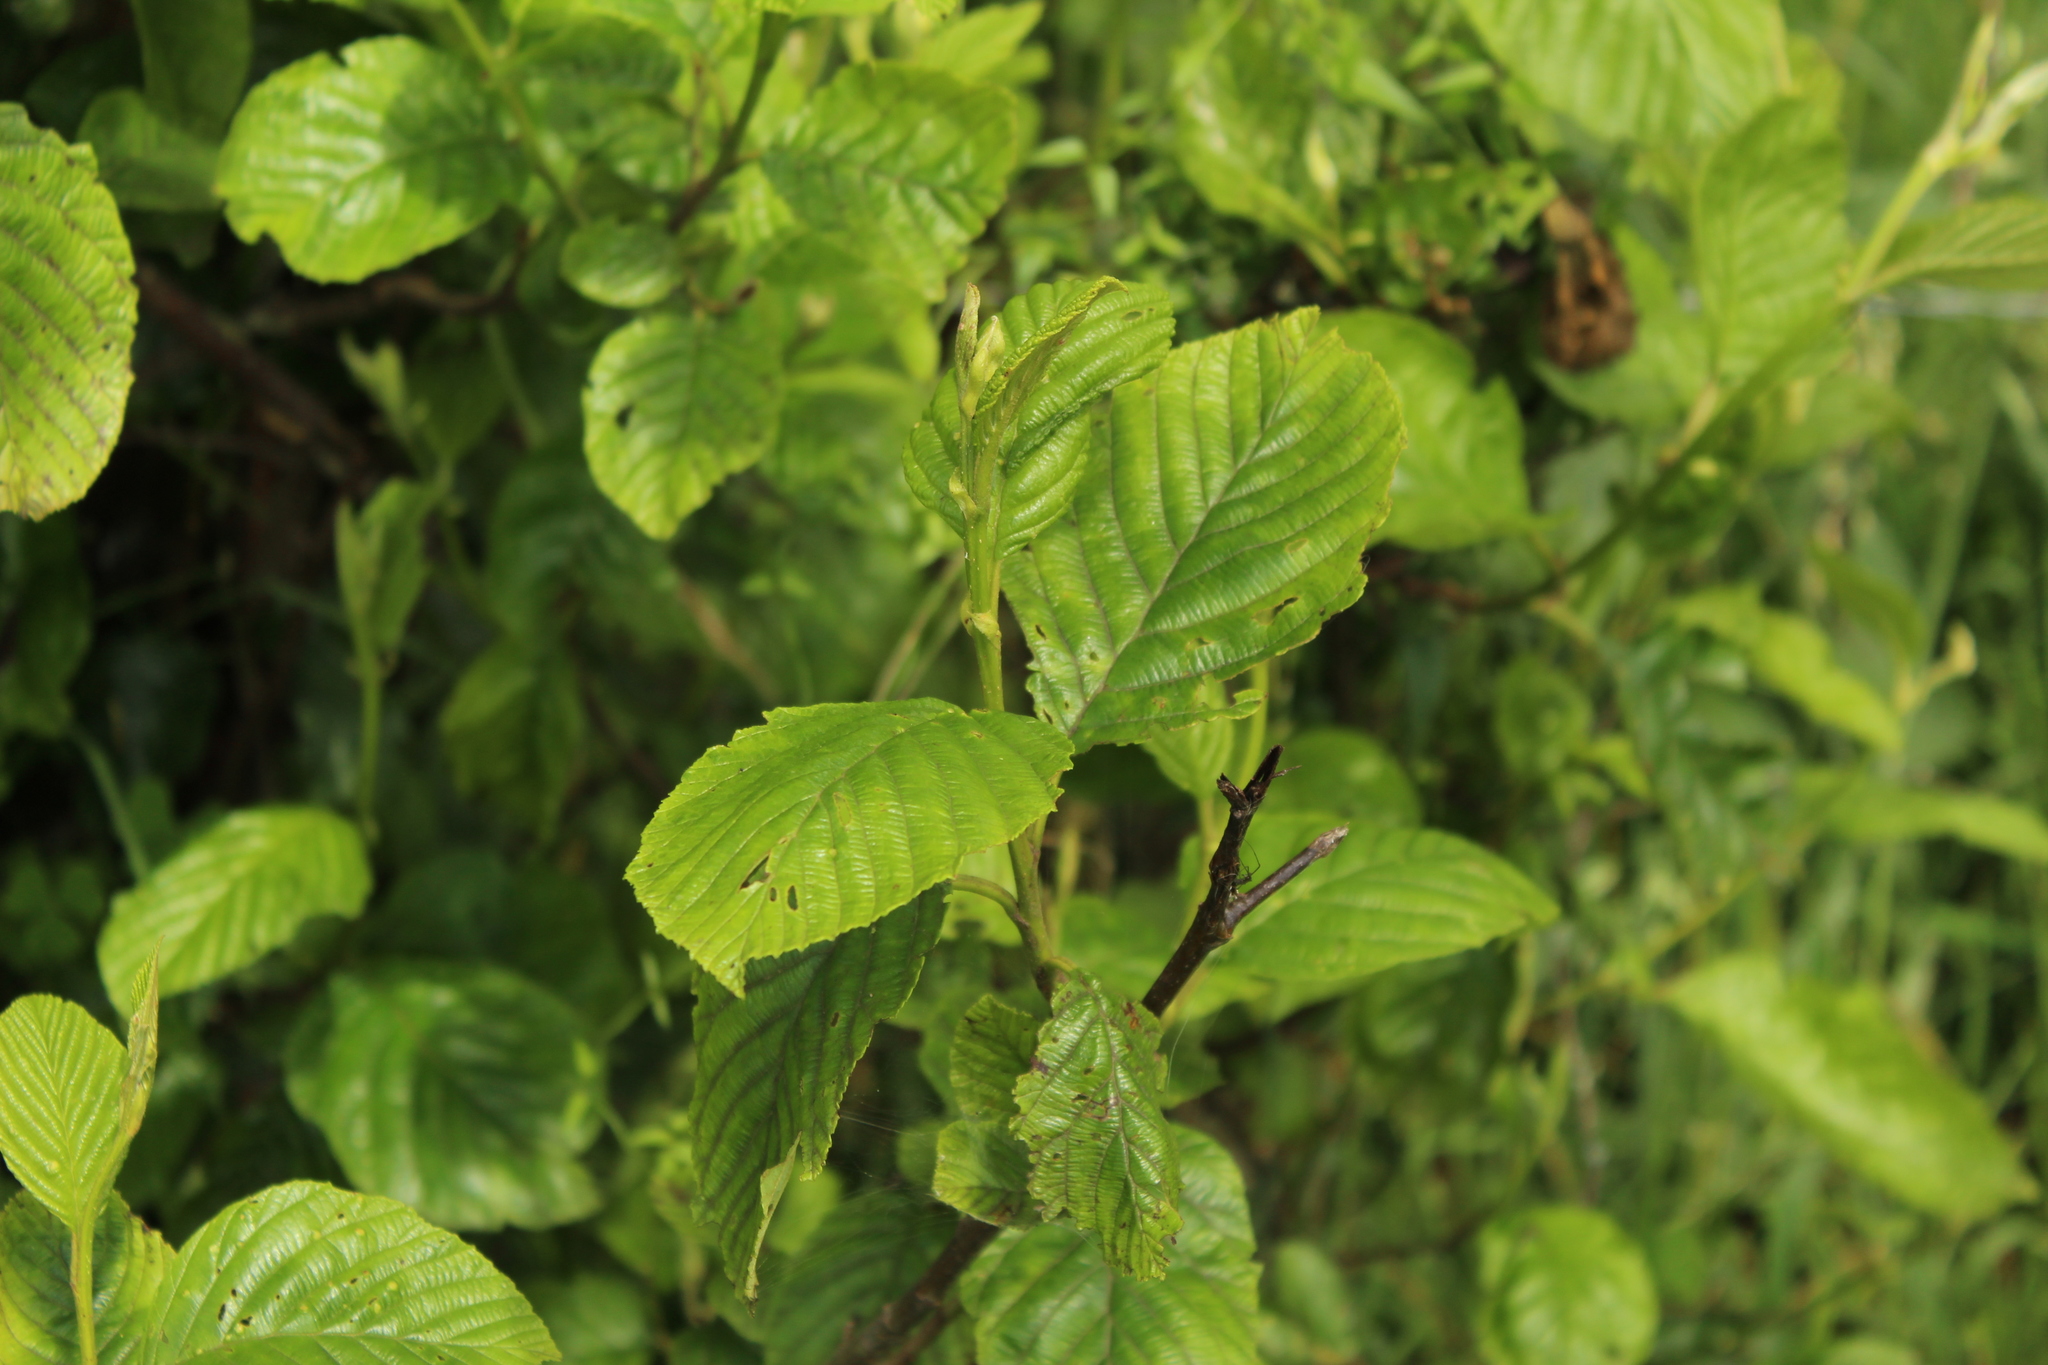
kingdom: Plantae
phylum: Tracheophyta
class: Magnoliopsida
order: Fagales
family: Betulaceae
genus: Alnus
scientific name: Alnus acuminata
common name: Alder
